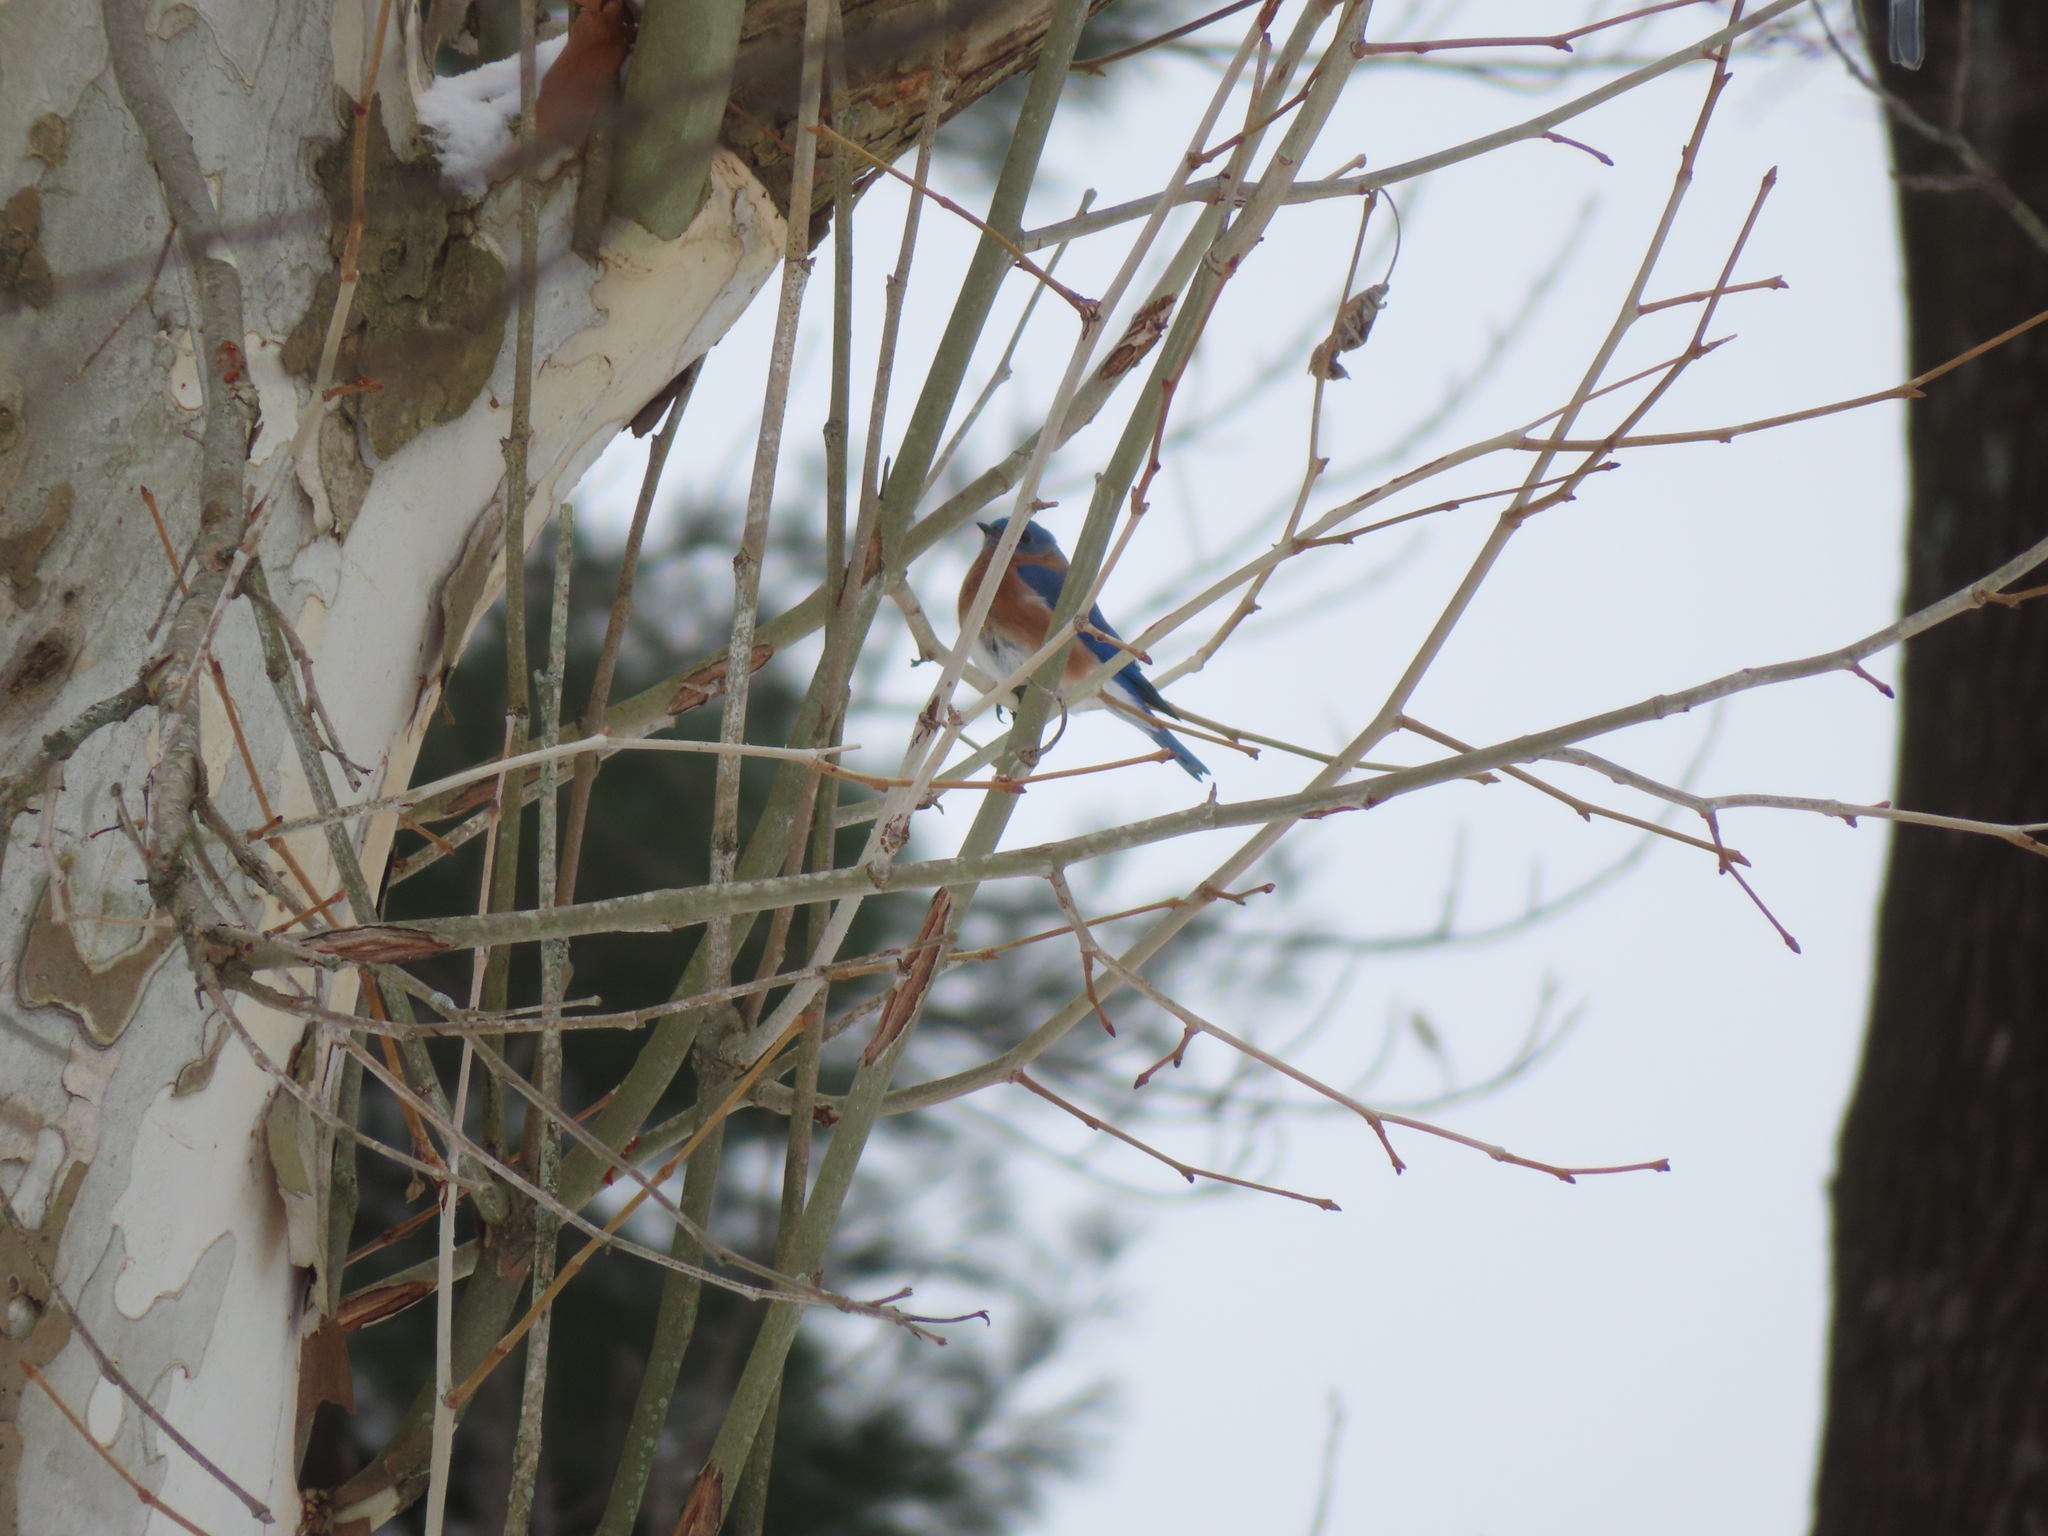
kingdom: Animalia
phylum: Chordata
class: Aves
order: Passeriformes
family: Turdidae
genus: Sialia
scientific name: Sialia sialis
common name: Eastern bluebird
